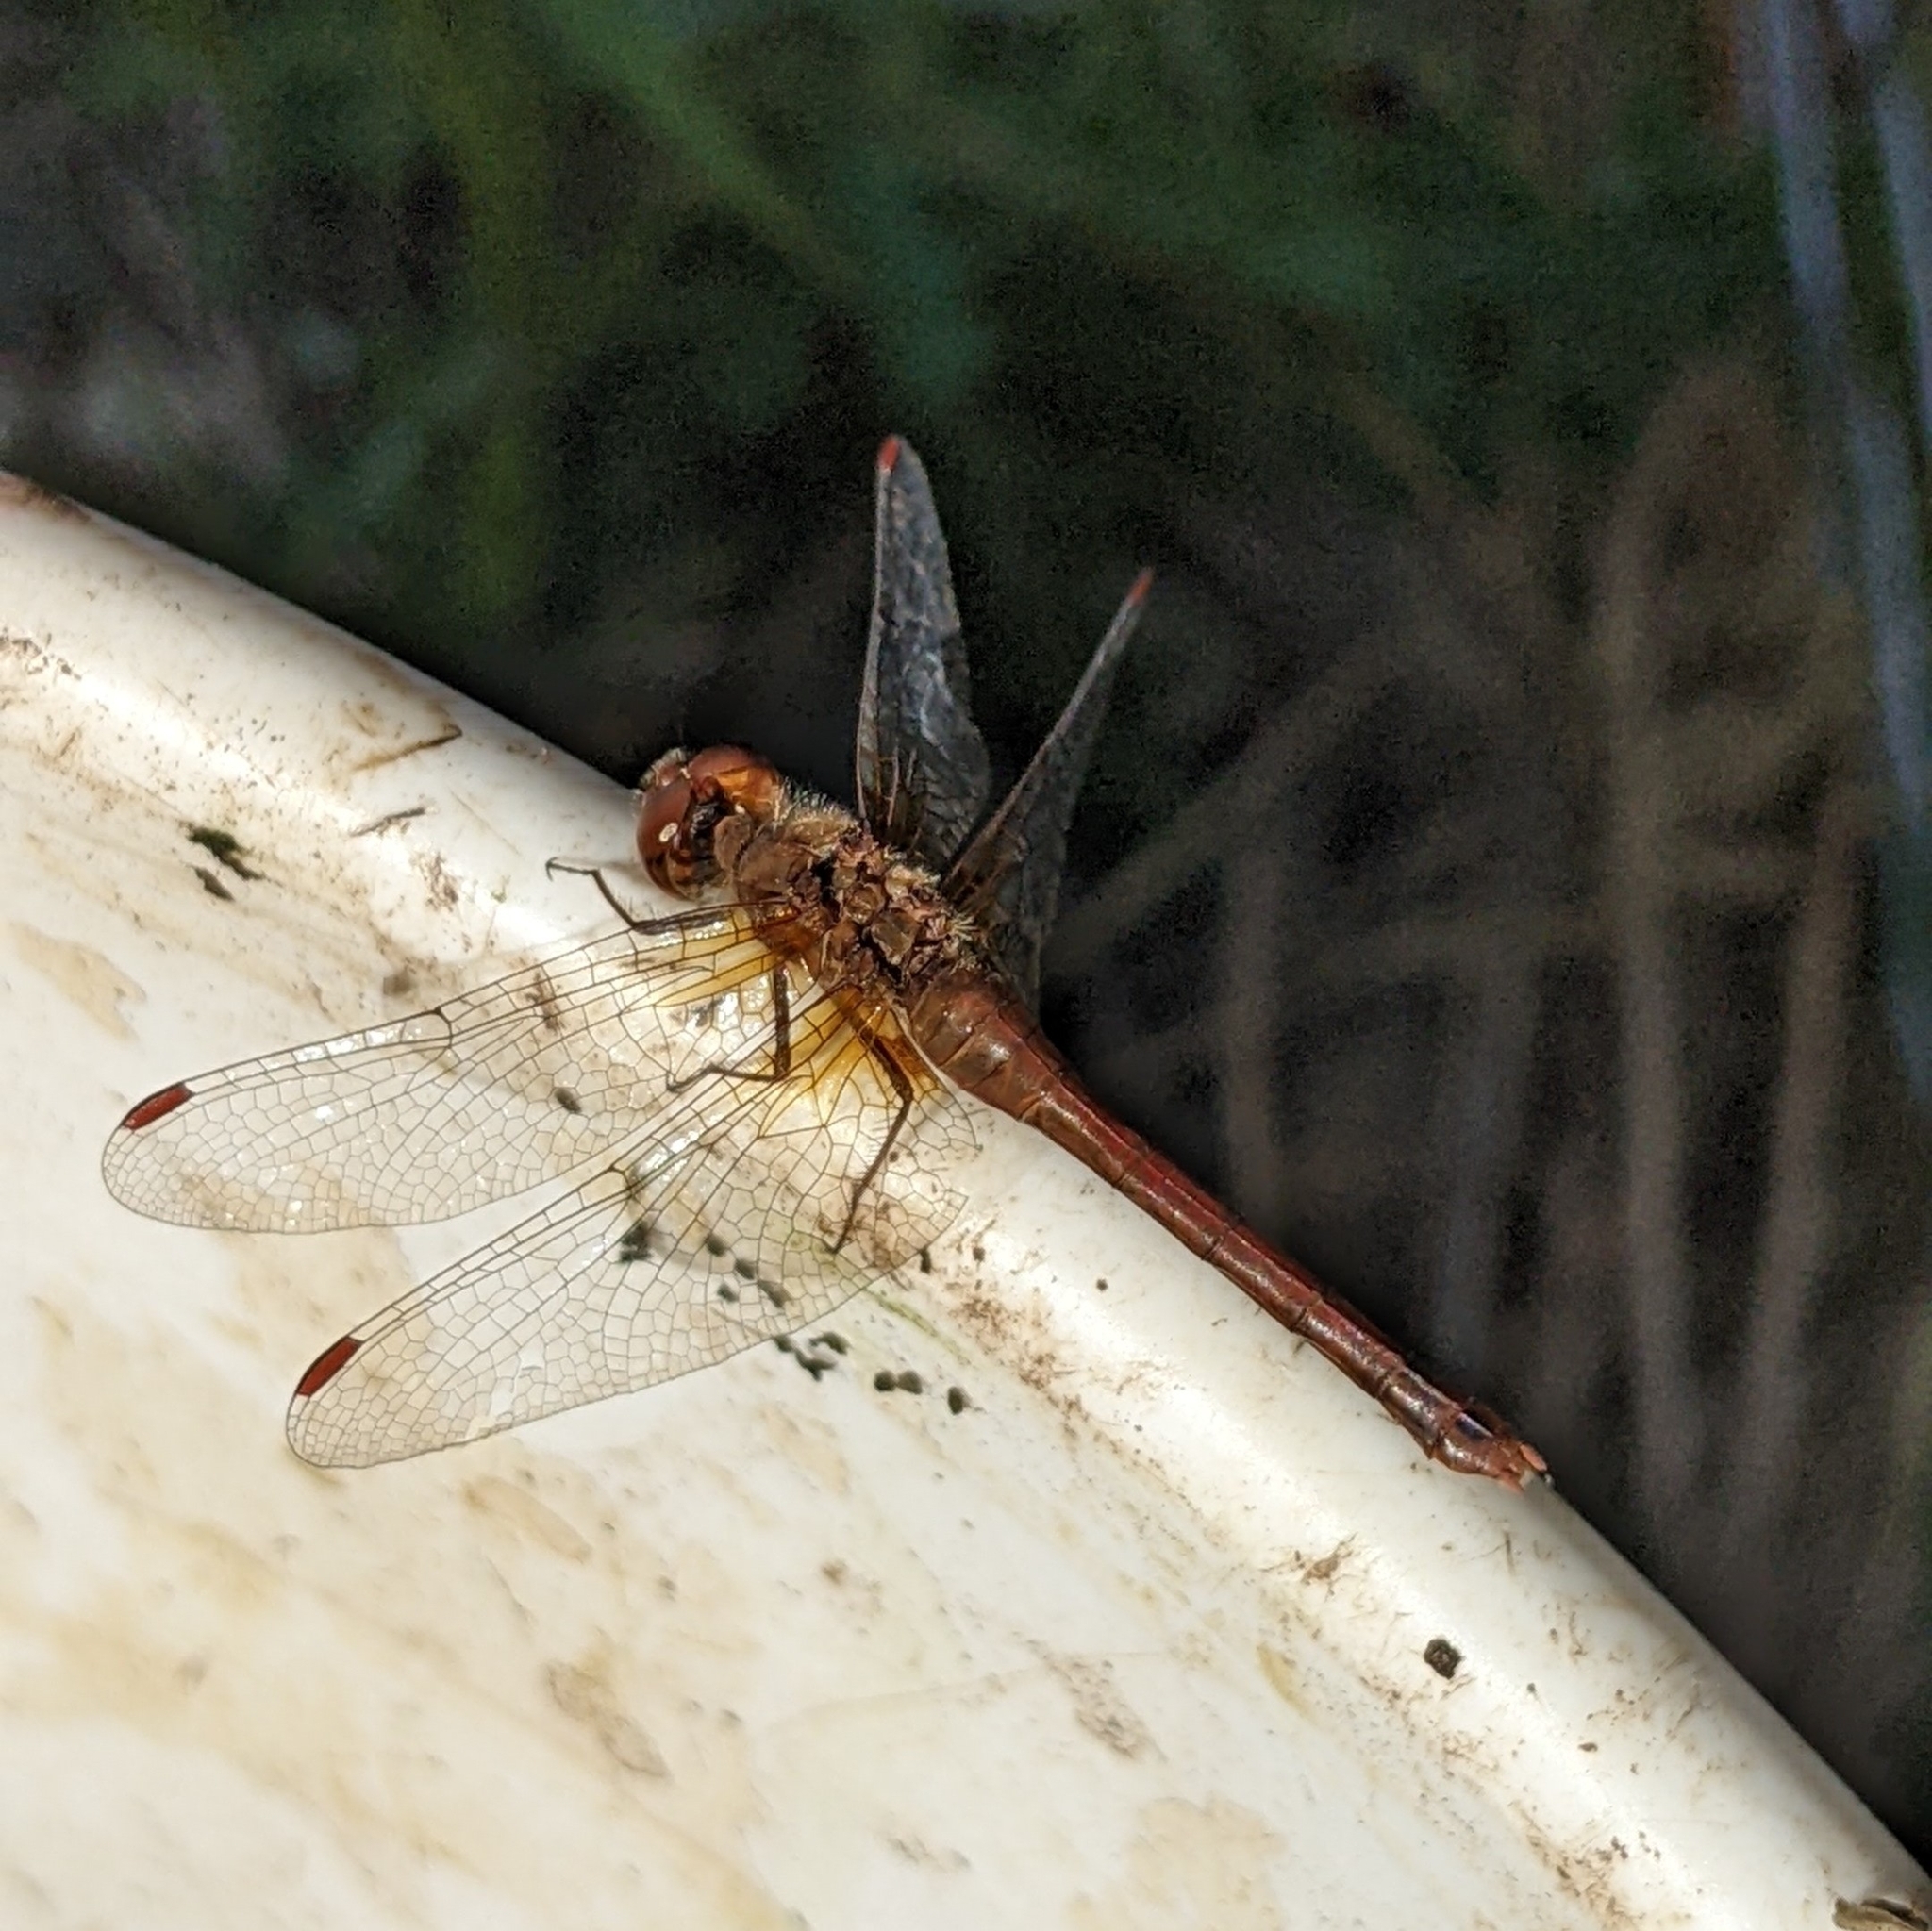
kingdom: Animalia
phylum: Arthropoda
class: Insecta
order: Odonata
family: Libellulidae
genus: Sympetrum
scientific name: Sympetrum vicinum
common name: Autumn meadowhawk
